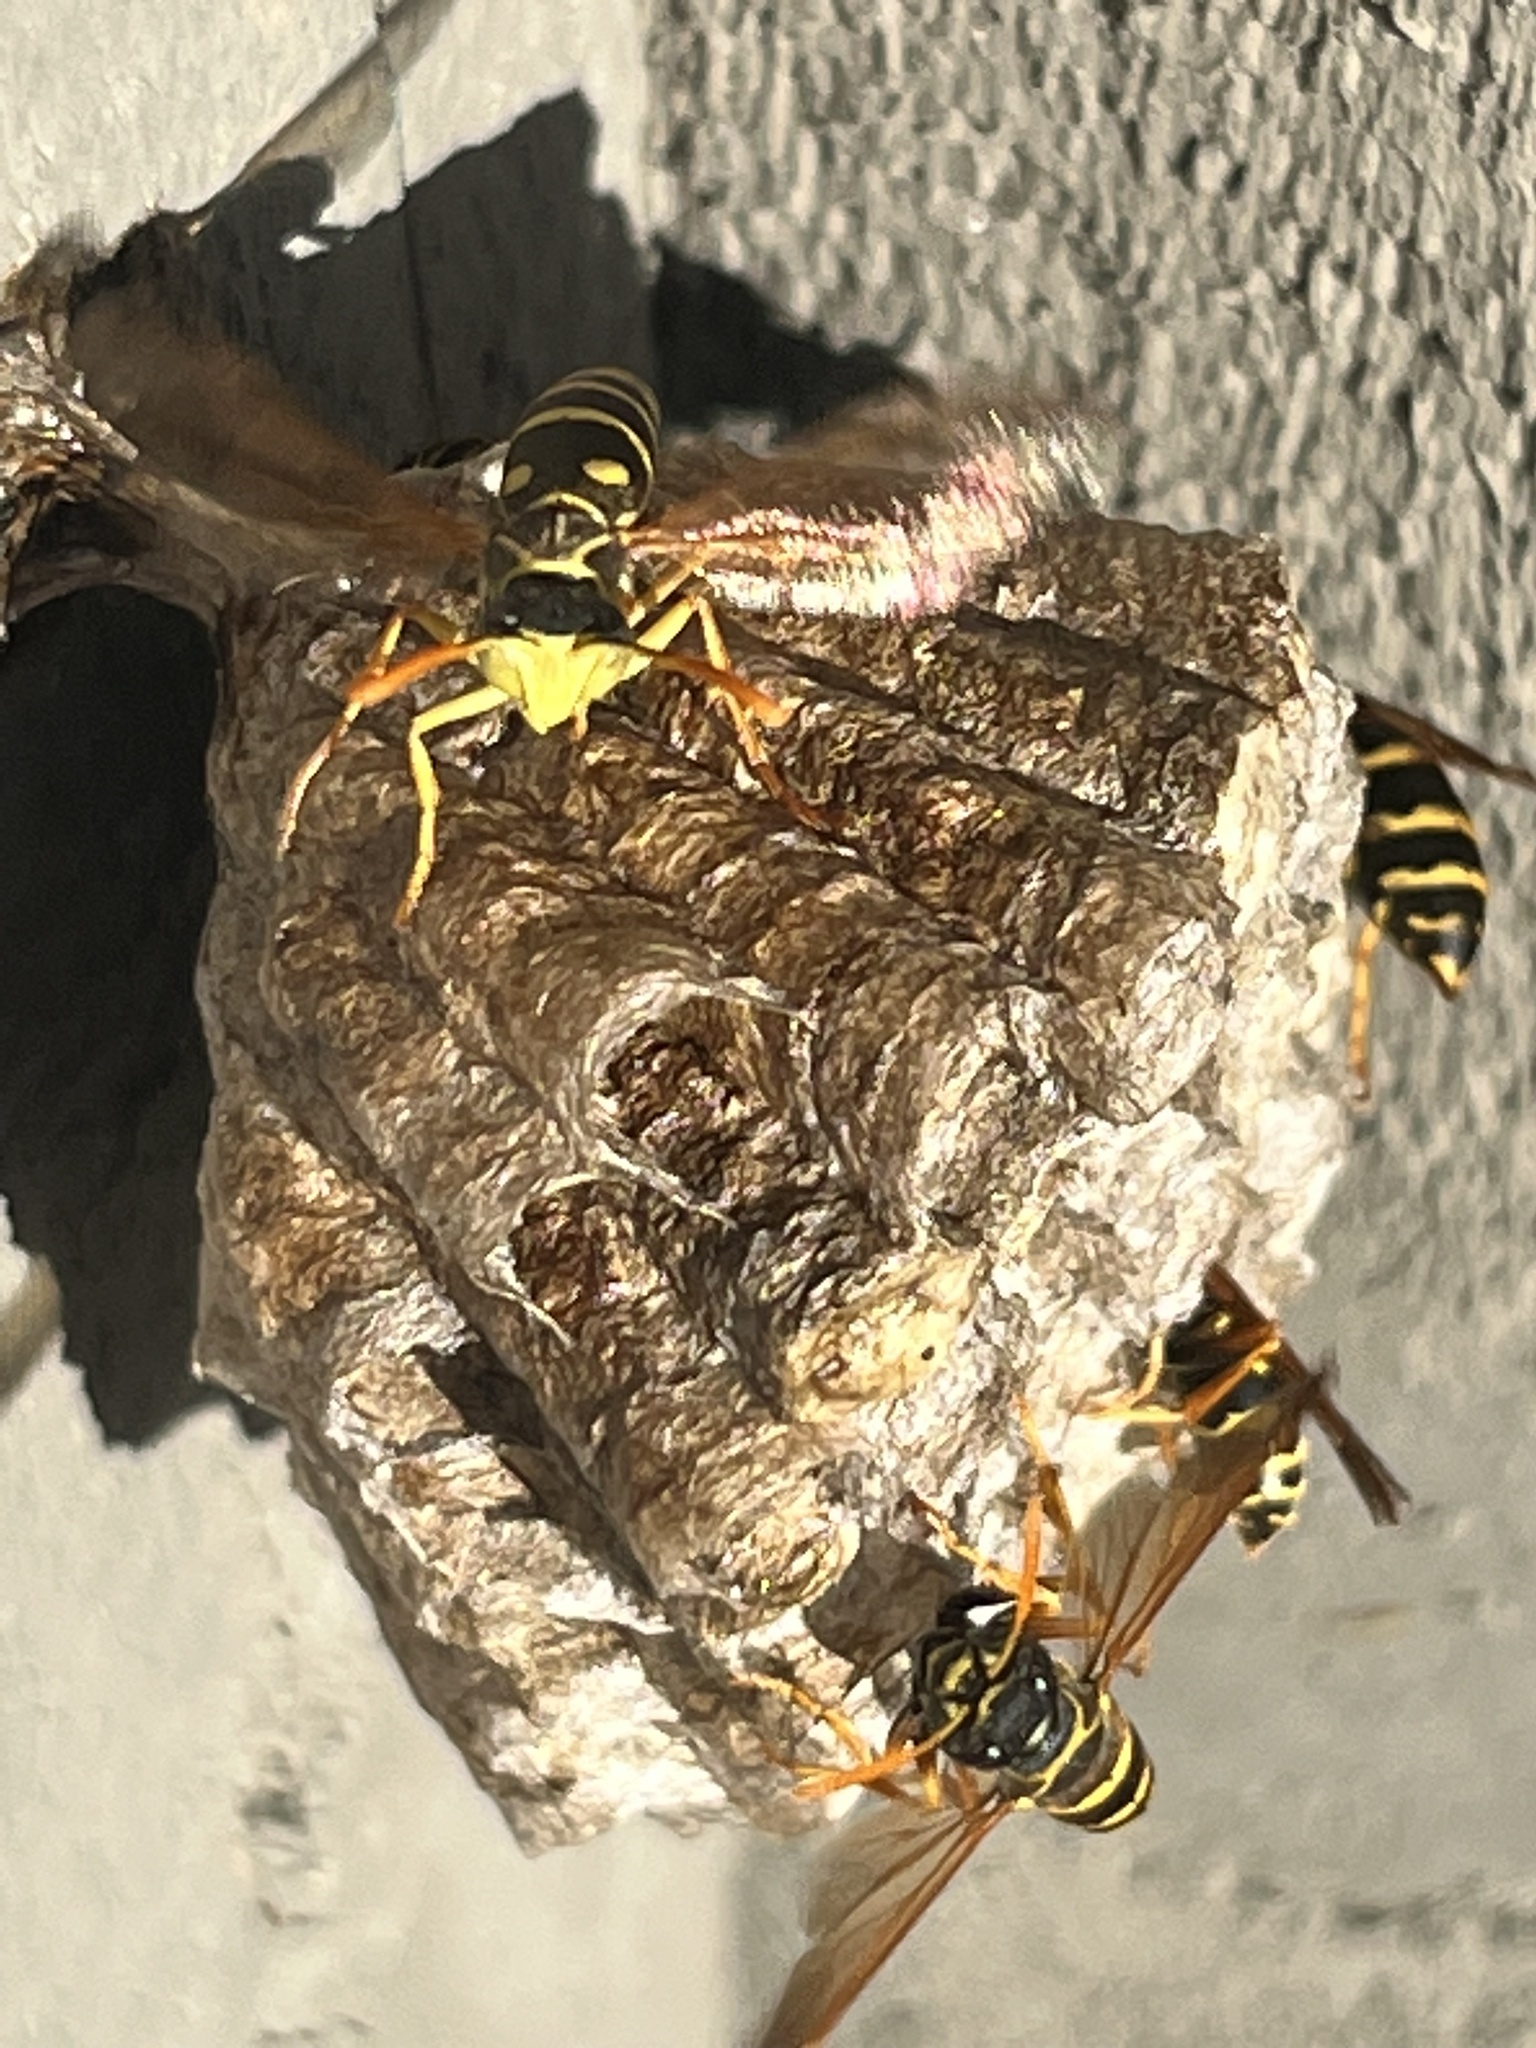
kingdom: Animalia
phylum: Arthropoda
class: Insecta
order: Hymenoptera
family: Eumenidae
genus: Polistes
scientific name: Polistes chinensis
